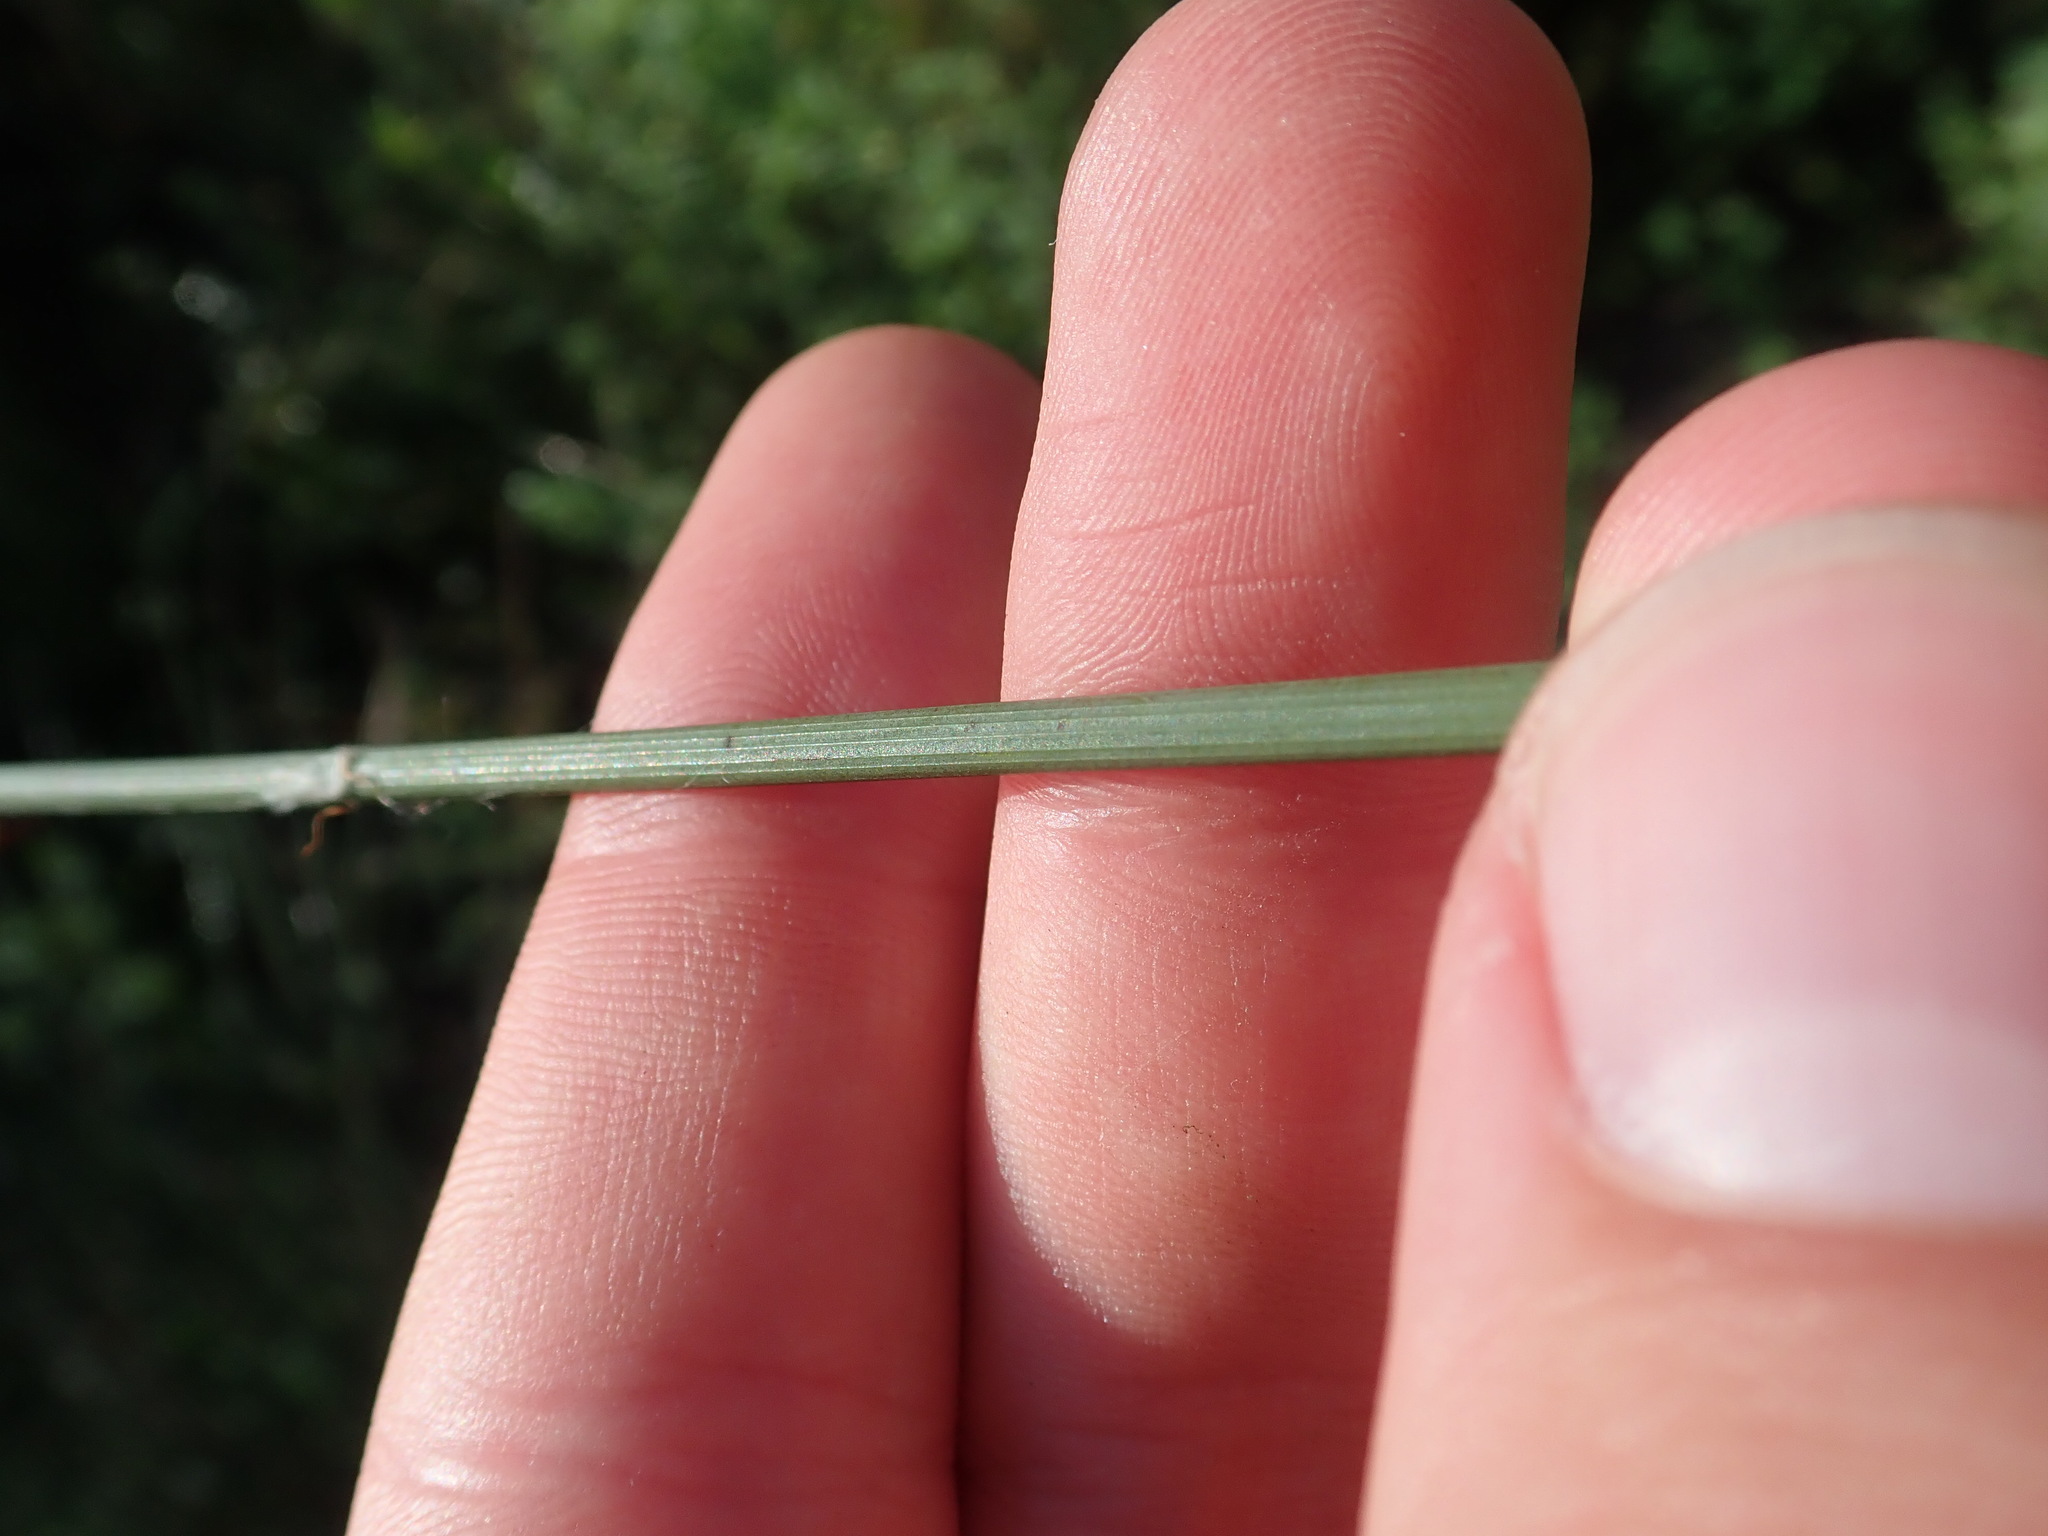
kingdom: Plantae
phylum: Tracheophyta
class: Liliopsida
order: Poales
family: Juncaceae
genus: Juncus
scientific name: Juncus inflexus
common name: Hard rush
